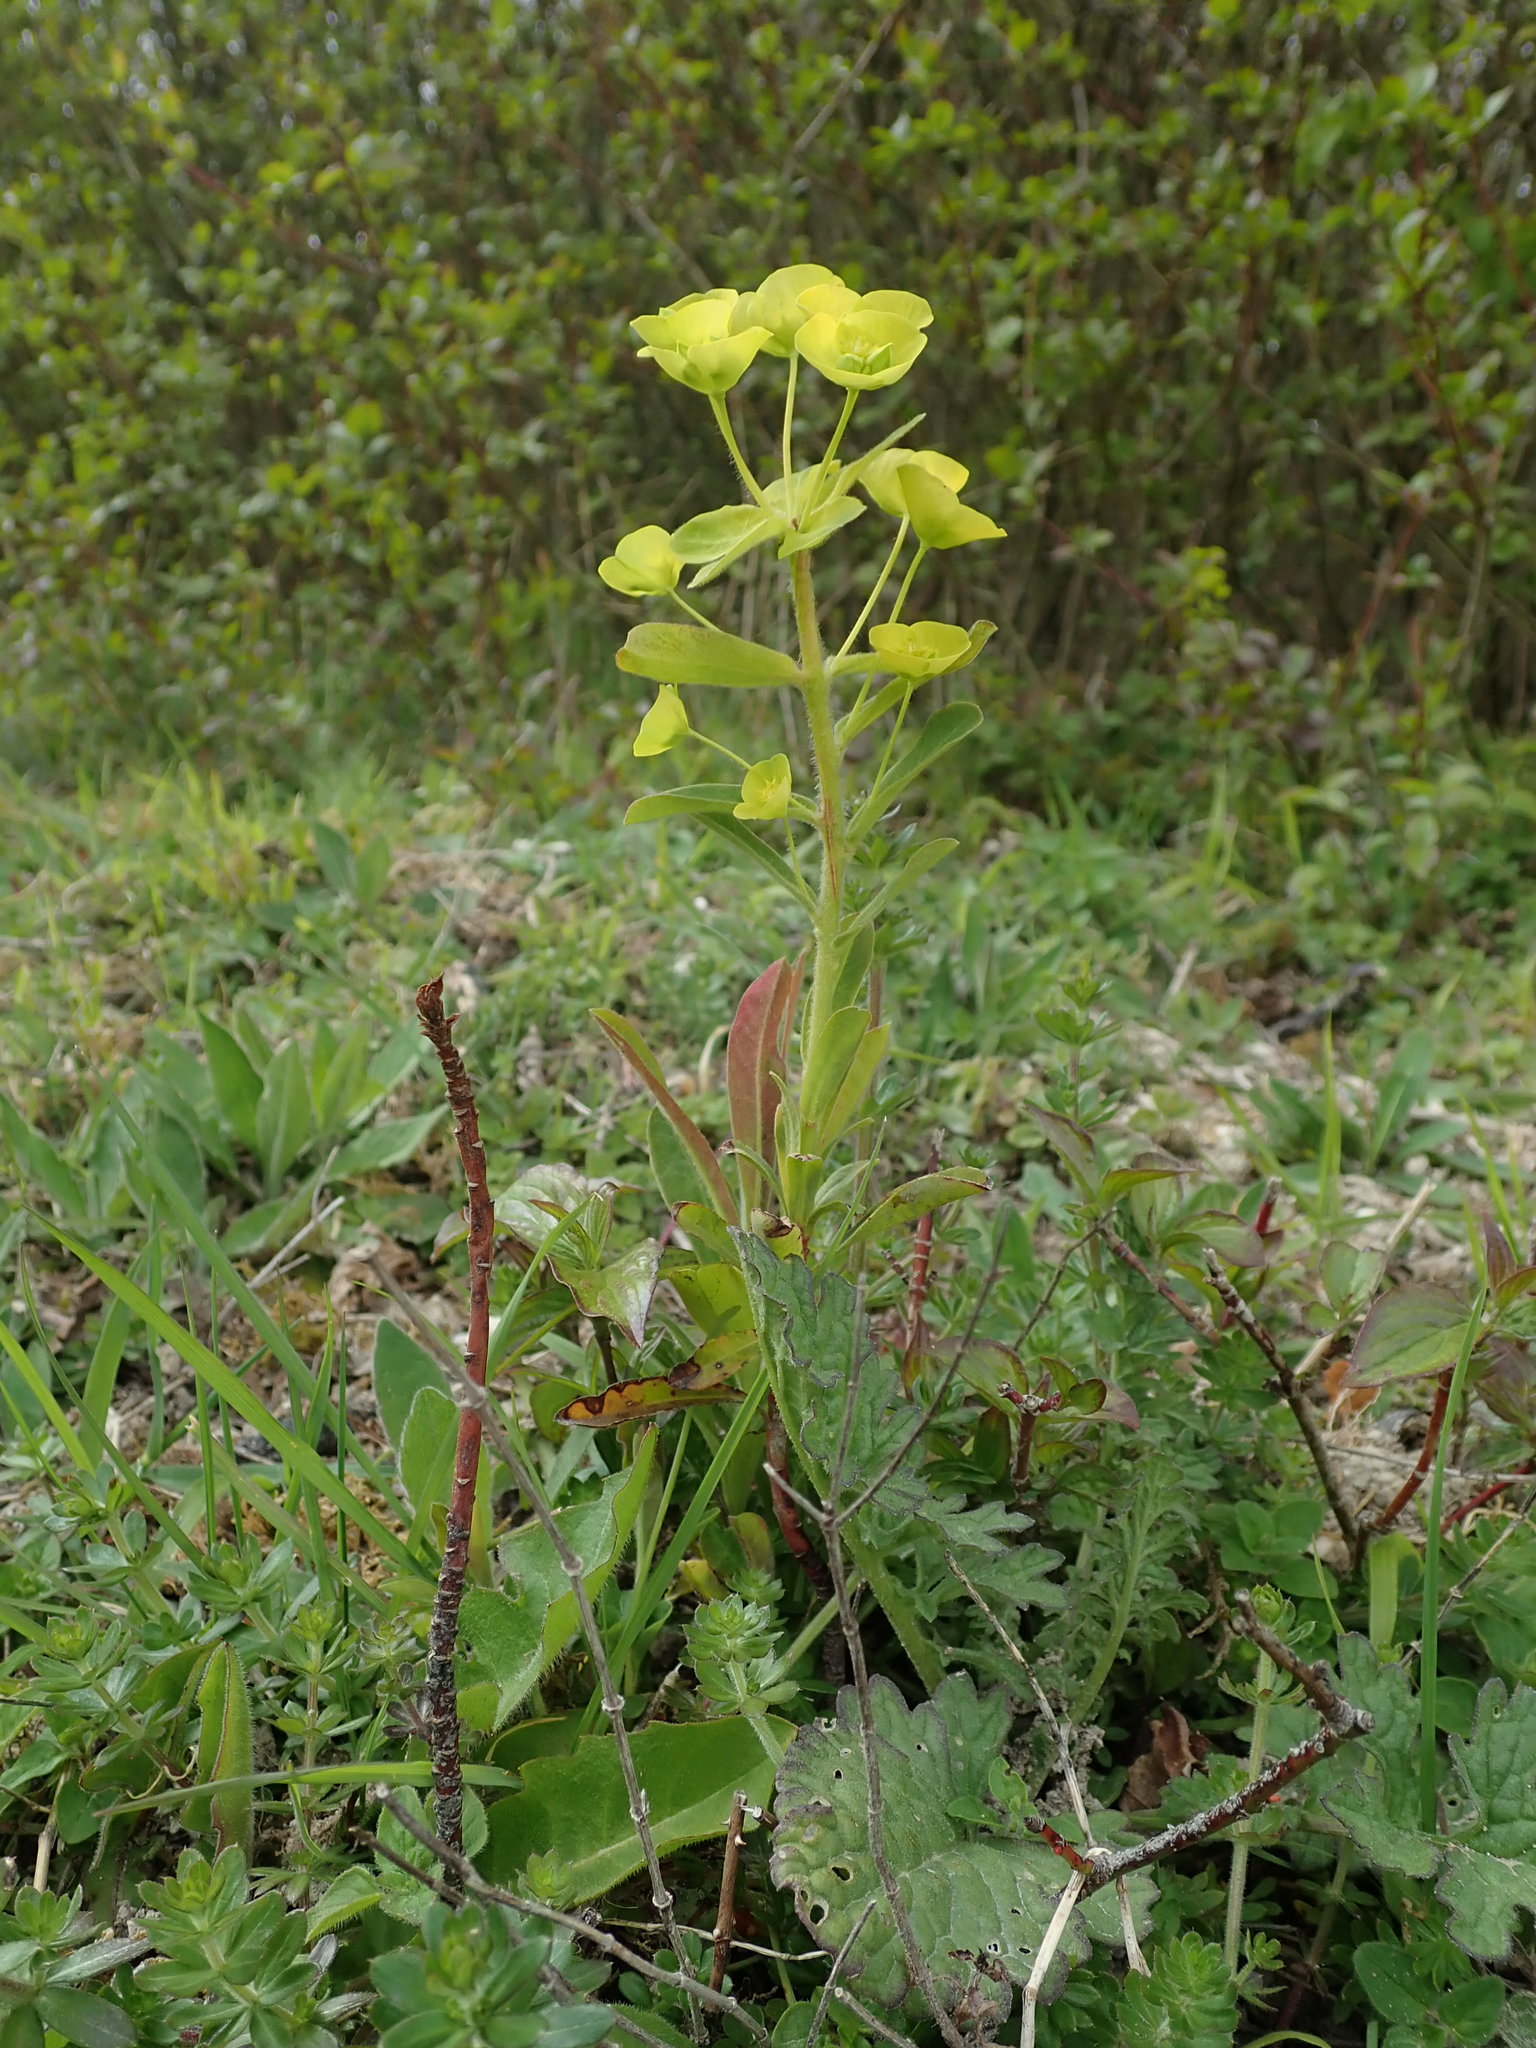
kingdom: Plantae
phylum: Tracheophyta
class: Magnoliopsida
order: Malpighiales
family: Euphorbiaceae
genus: Euphorbia
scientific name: Euphorbia amygdaloides
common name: Wood spurge
